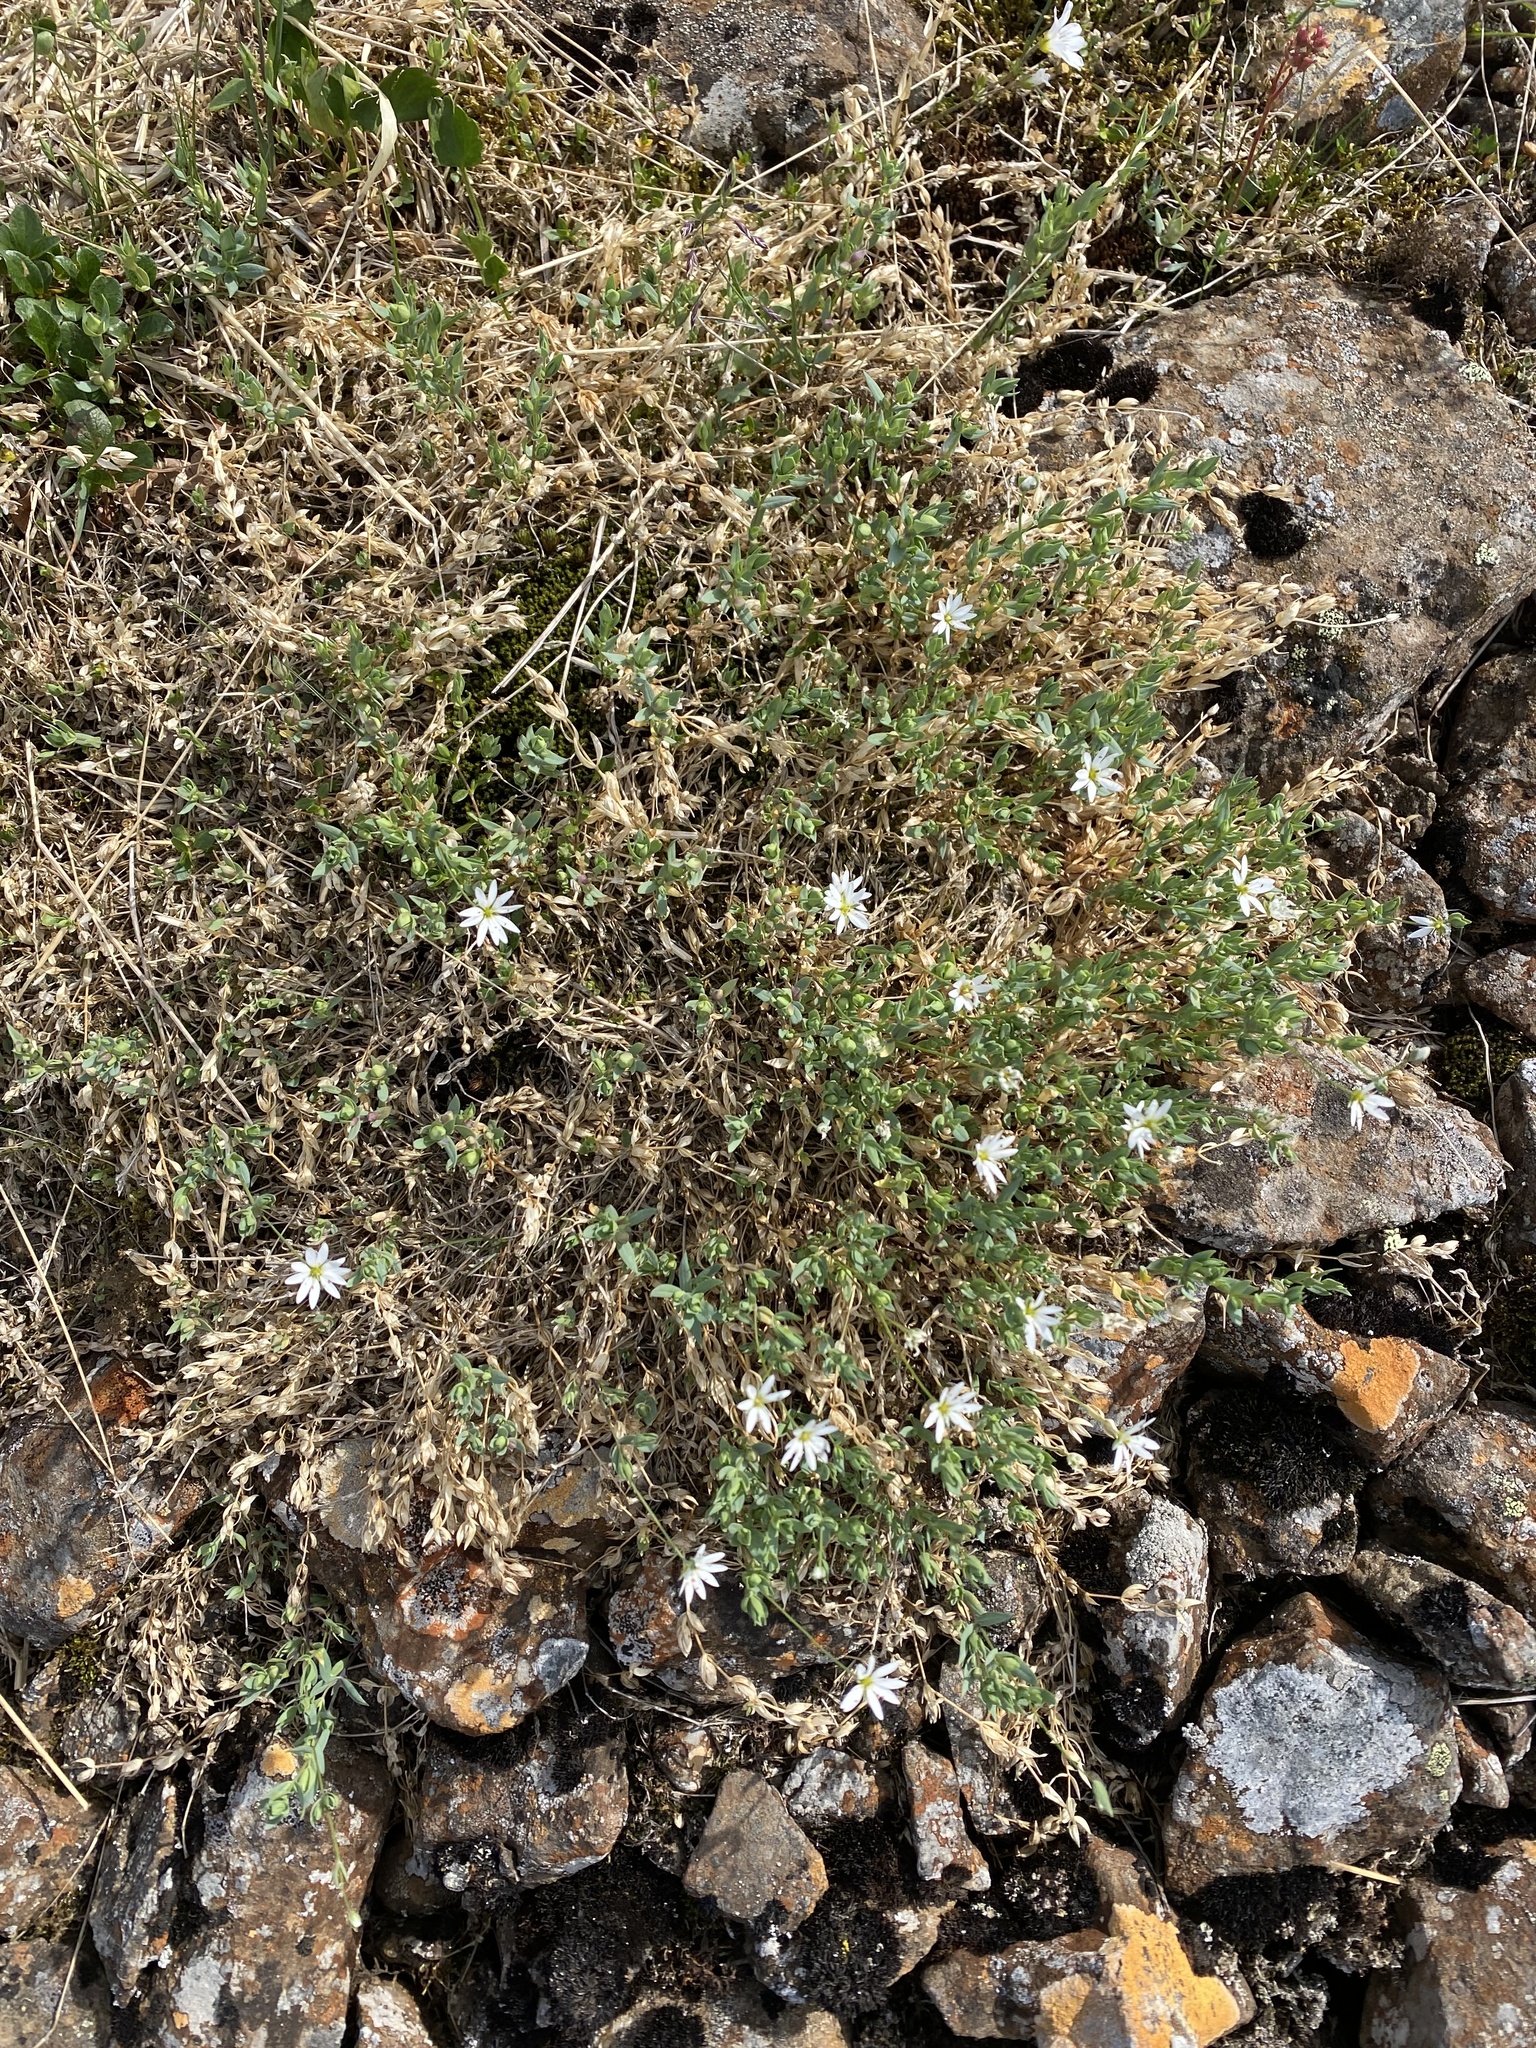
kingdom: Plantae
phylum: Tracheophyta
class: Magnoliopsida
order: Caryophyllales
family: Caryophyllaceae
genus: Stellaria
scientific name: Stellaria longipes
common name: Goldie's starwort
